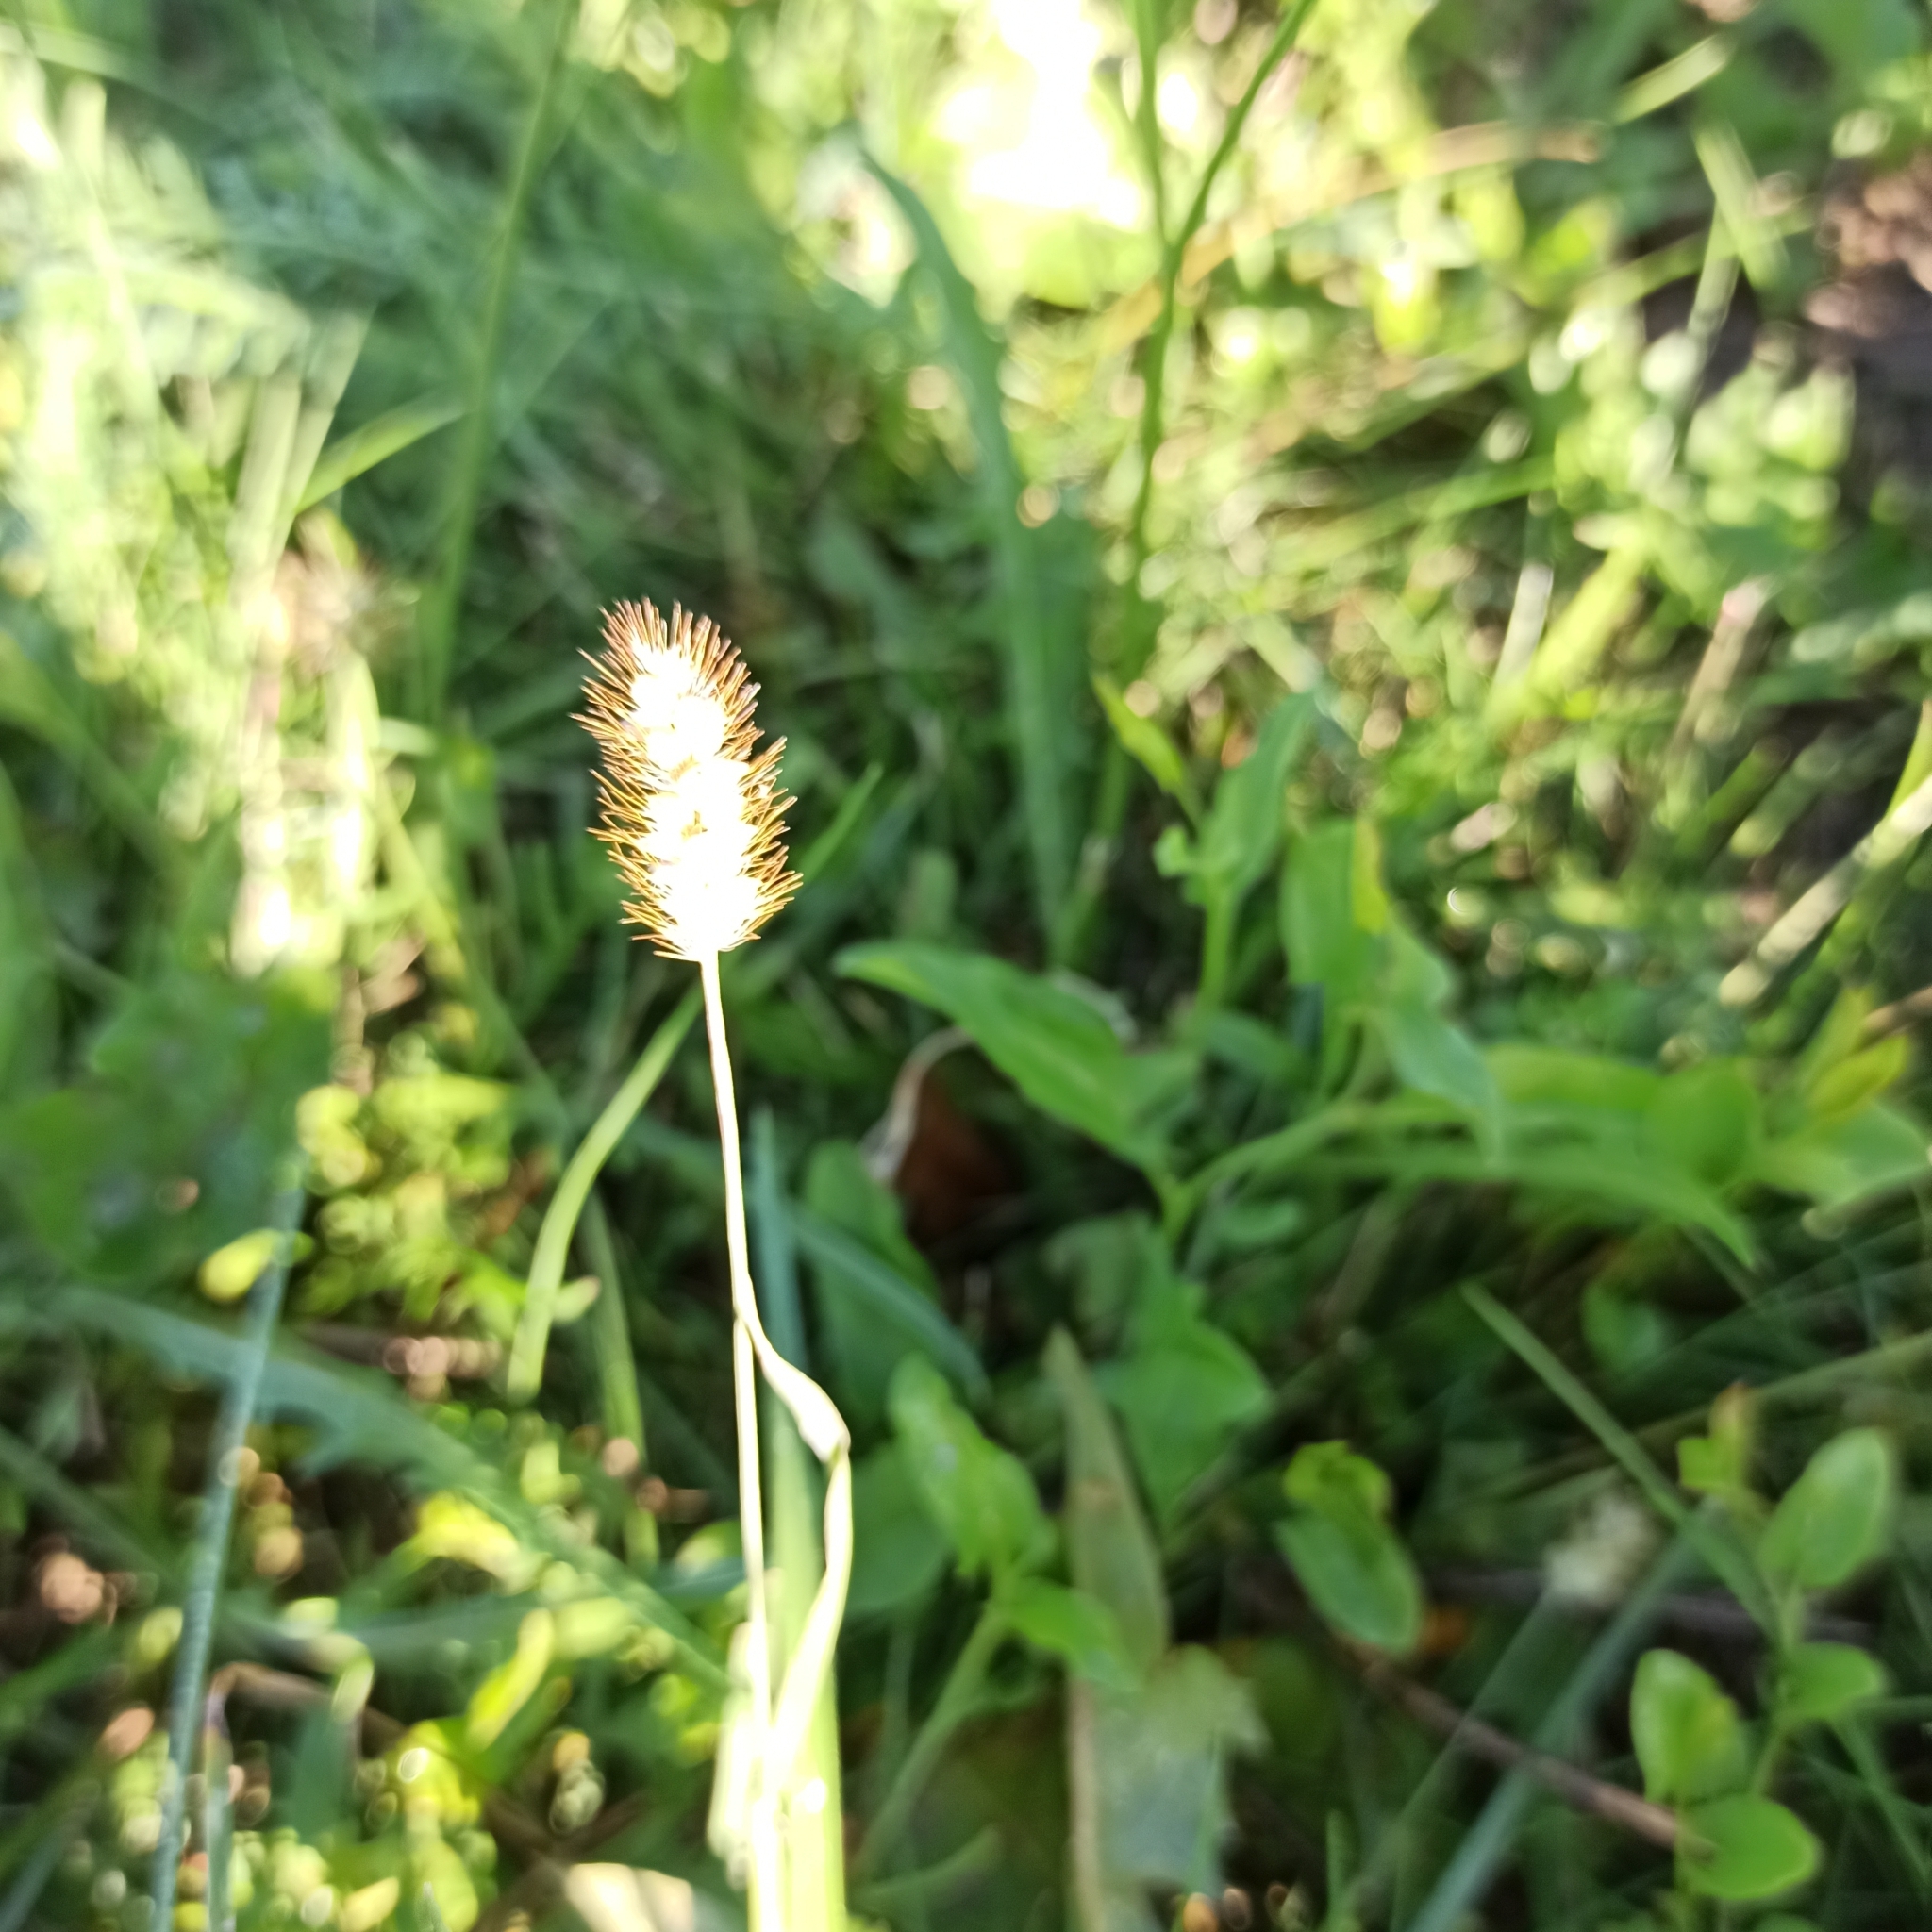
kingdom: Plantae
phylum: Tracheophyta
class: Liliopsida
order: Poales
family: Poaceae
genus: Setaria
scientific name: Setaria pumila
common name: Yellow bristle-grass
